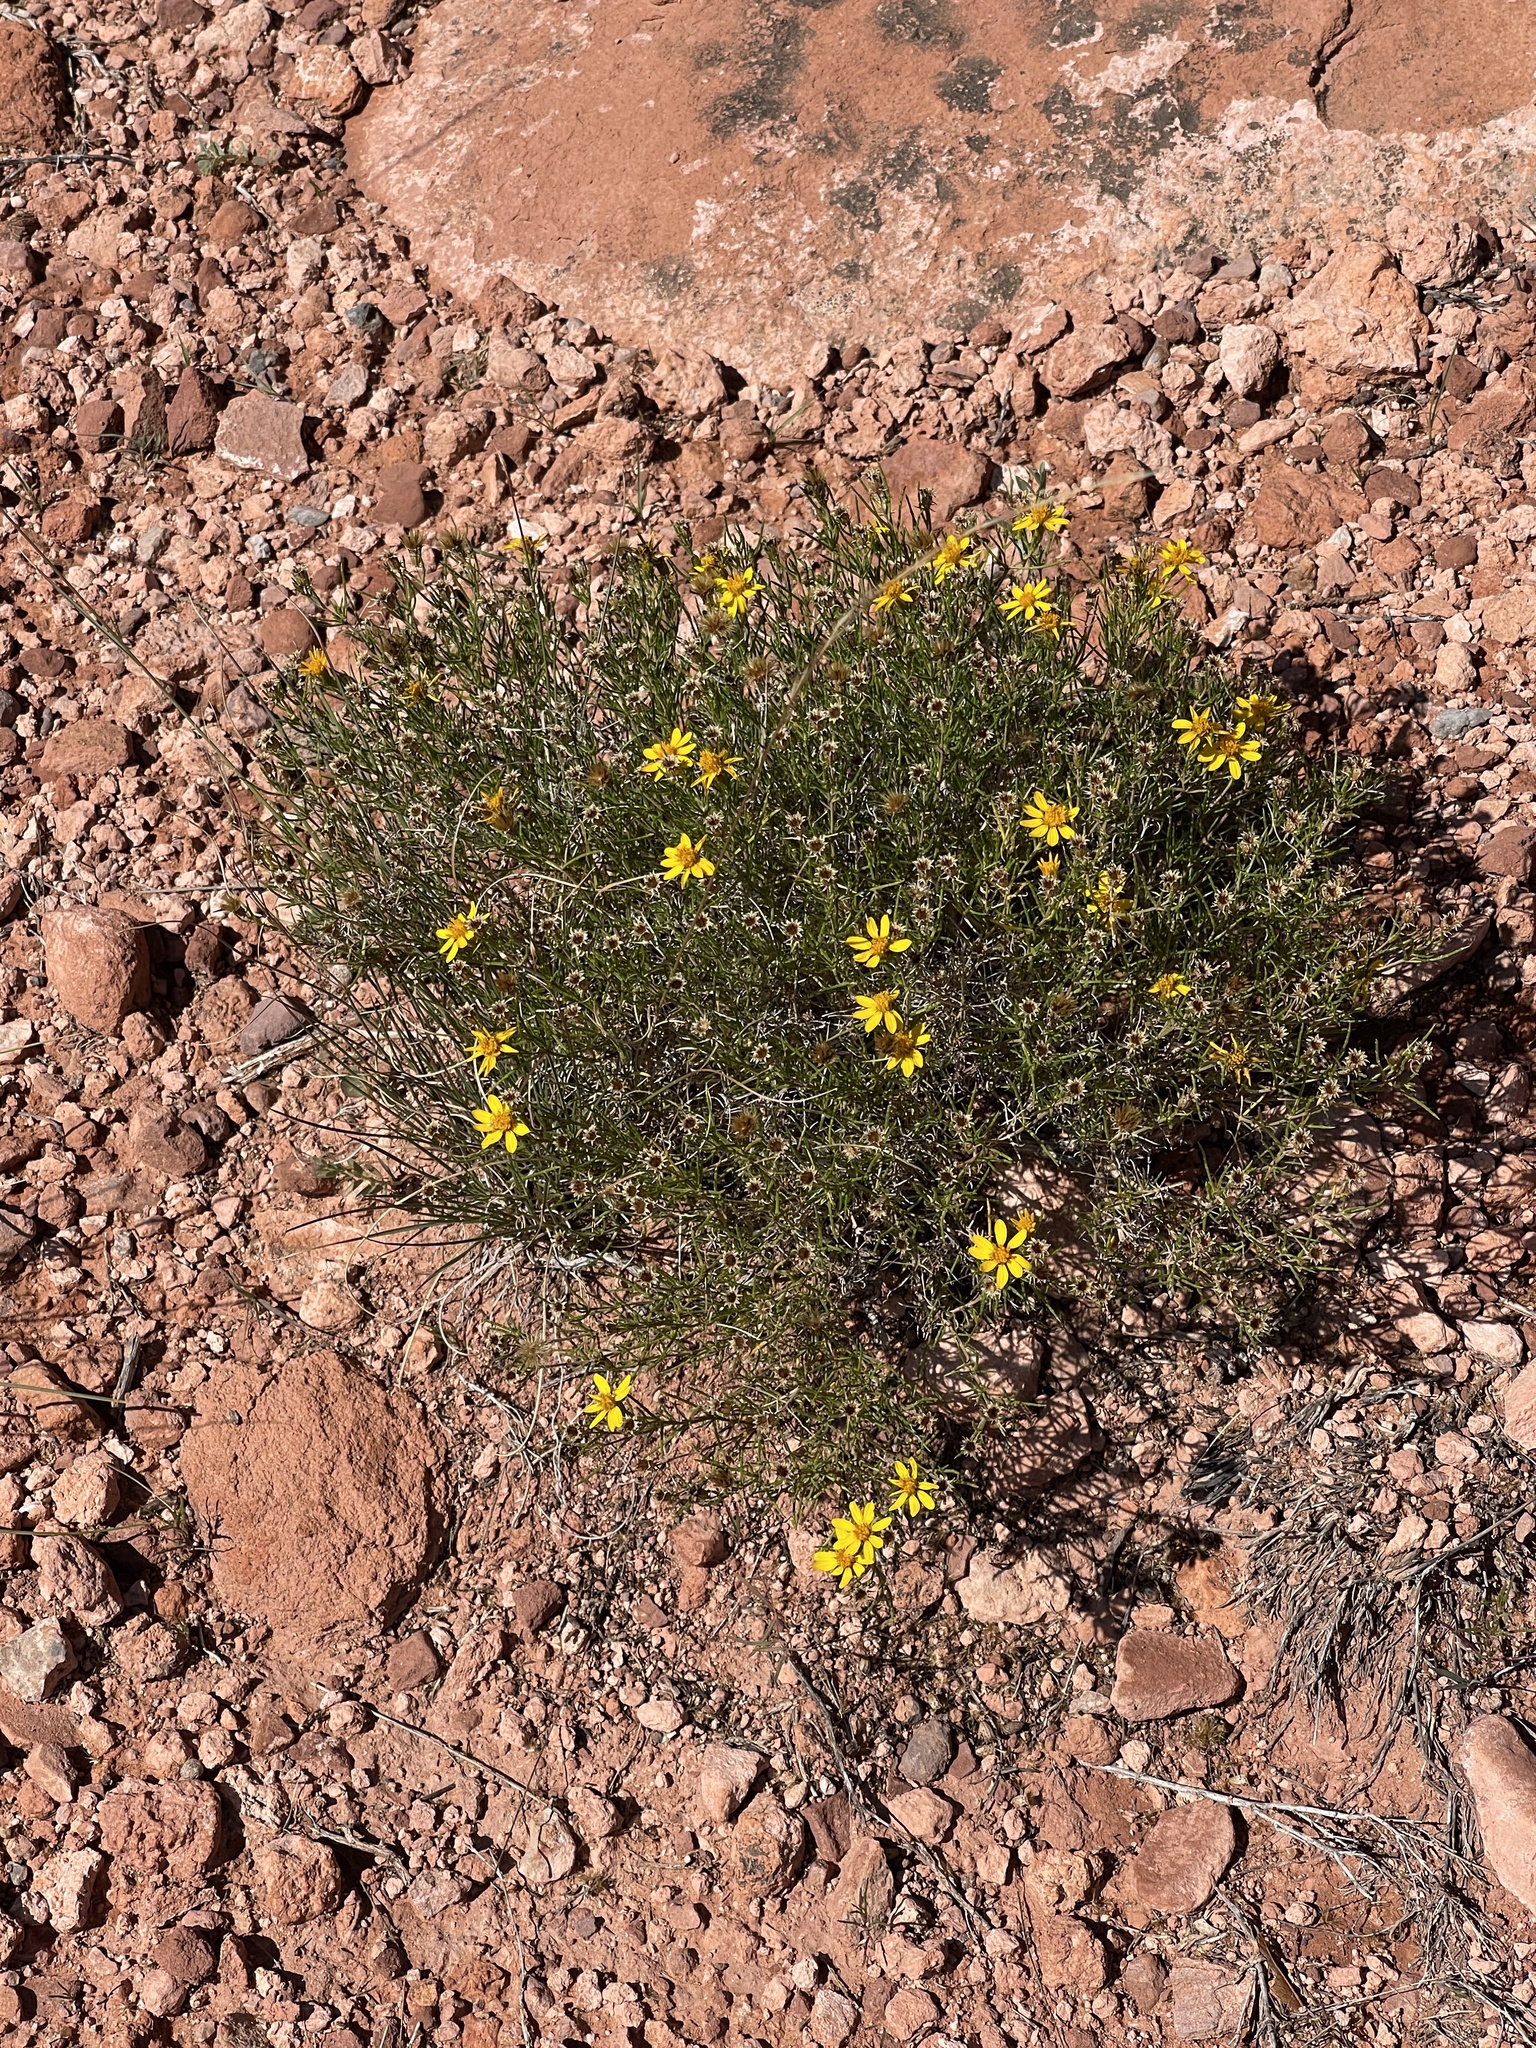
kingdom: Plantae
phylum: Tracheophyta
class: Magnoliopsida
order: Asterales
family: Asteraceae
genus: Thymophylla
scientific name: Thymophylla acerosa
